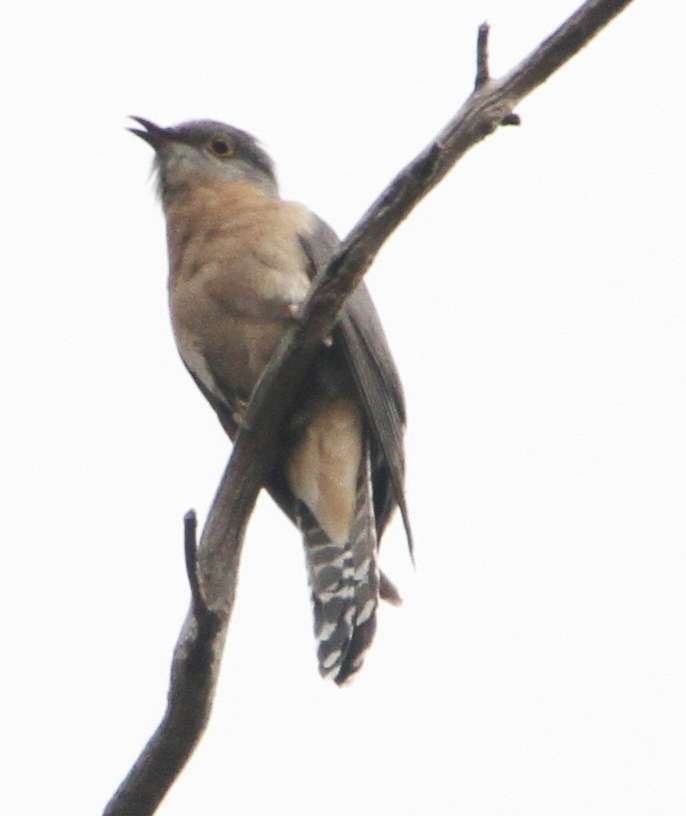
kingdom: Animalia
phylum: Chordata
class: Aves
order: Cuculiformes
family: Cuculidae
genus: Cacomantis
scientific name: Cacomantis flabelliformis
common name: Fan-tailed cuckoo
